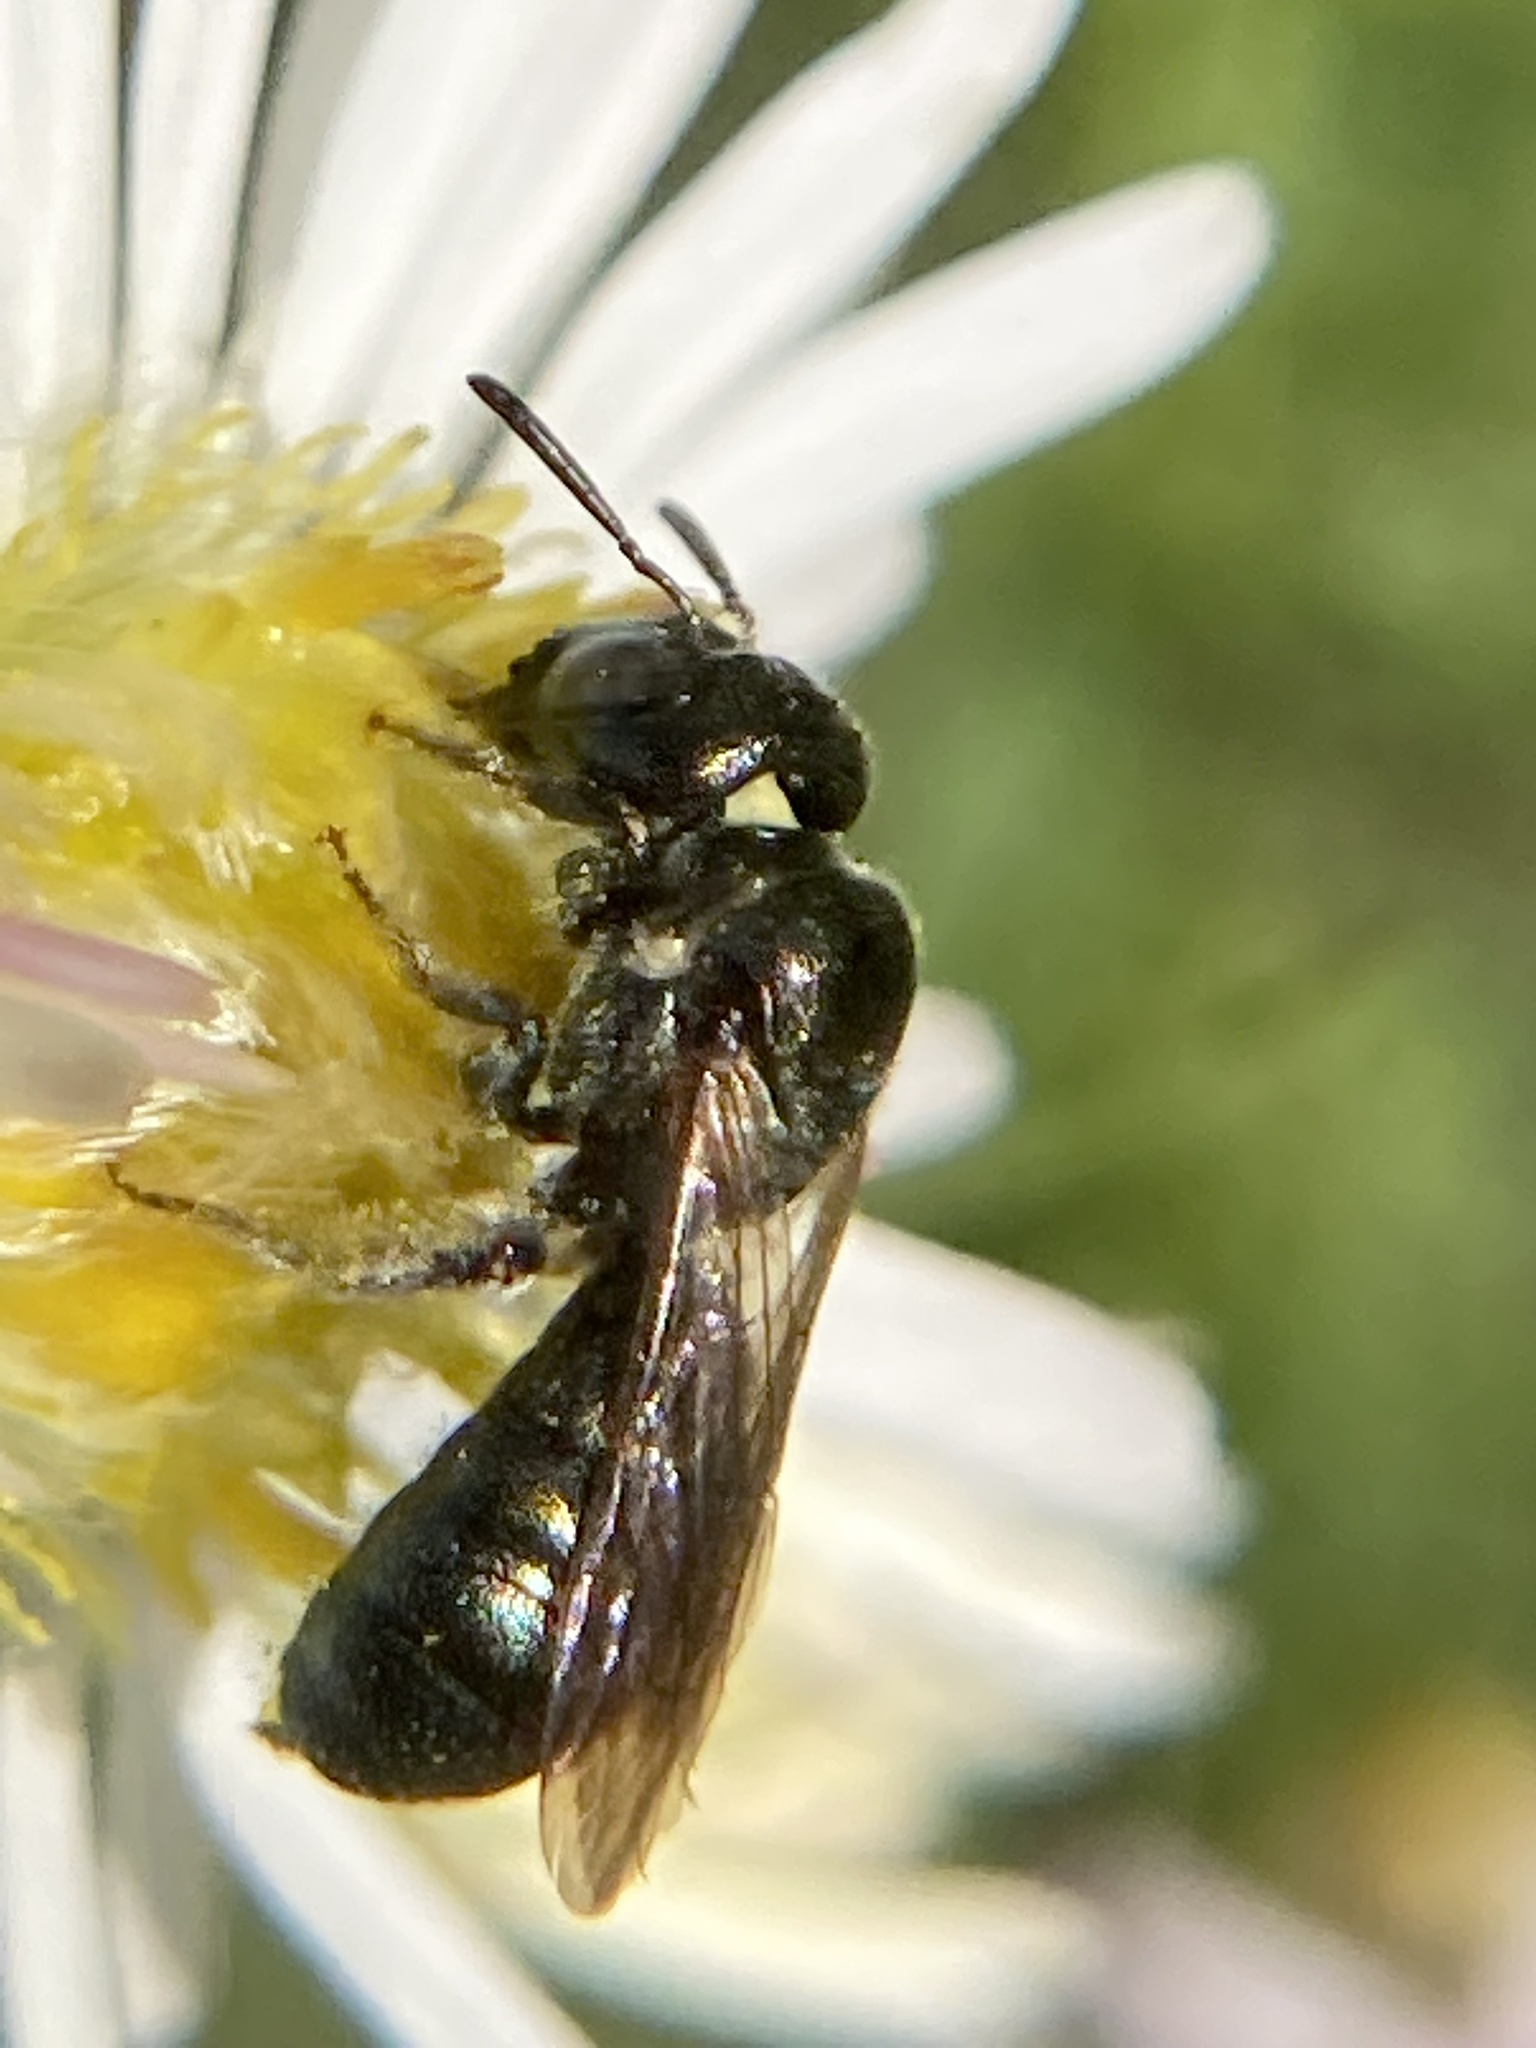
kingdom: Animalia
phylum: Arthropoda
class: Insecta
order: Hymenoptera
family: Apidae
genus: Ceratina
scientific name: Ceratina calcarata
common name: Spurred carpenter bee
